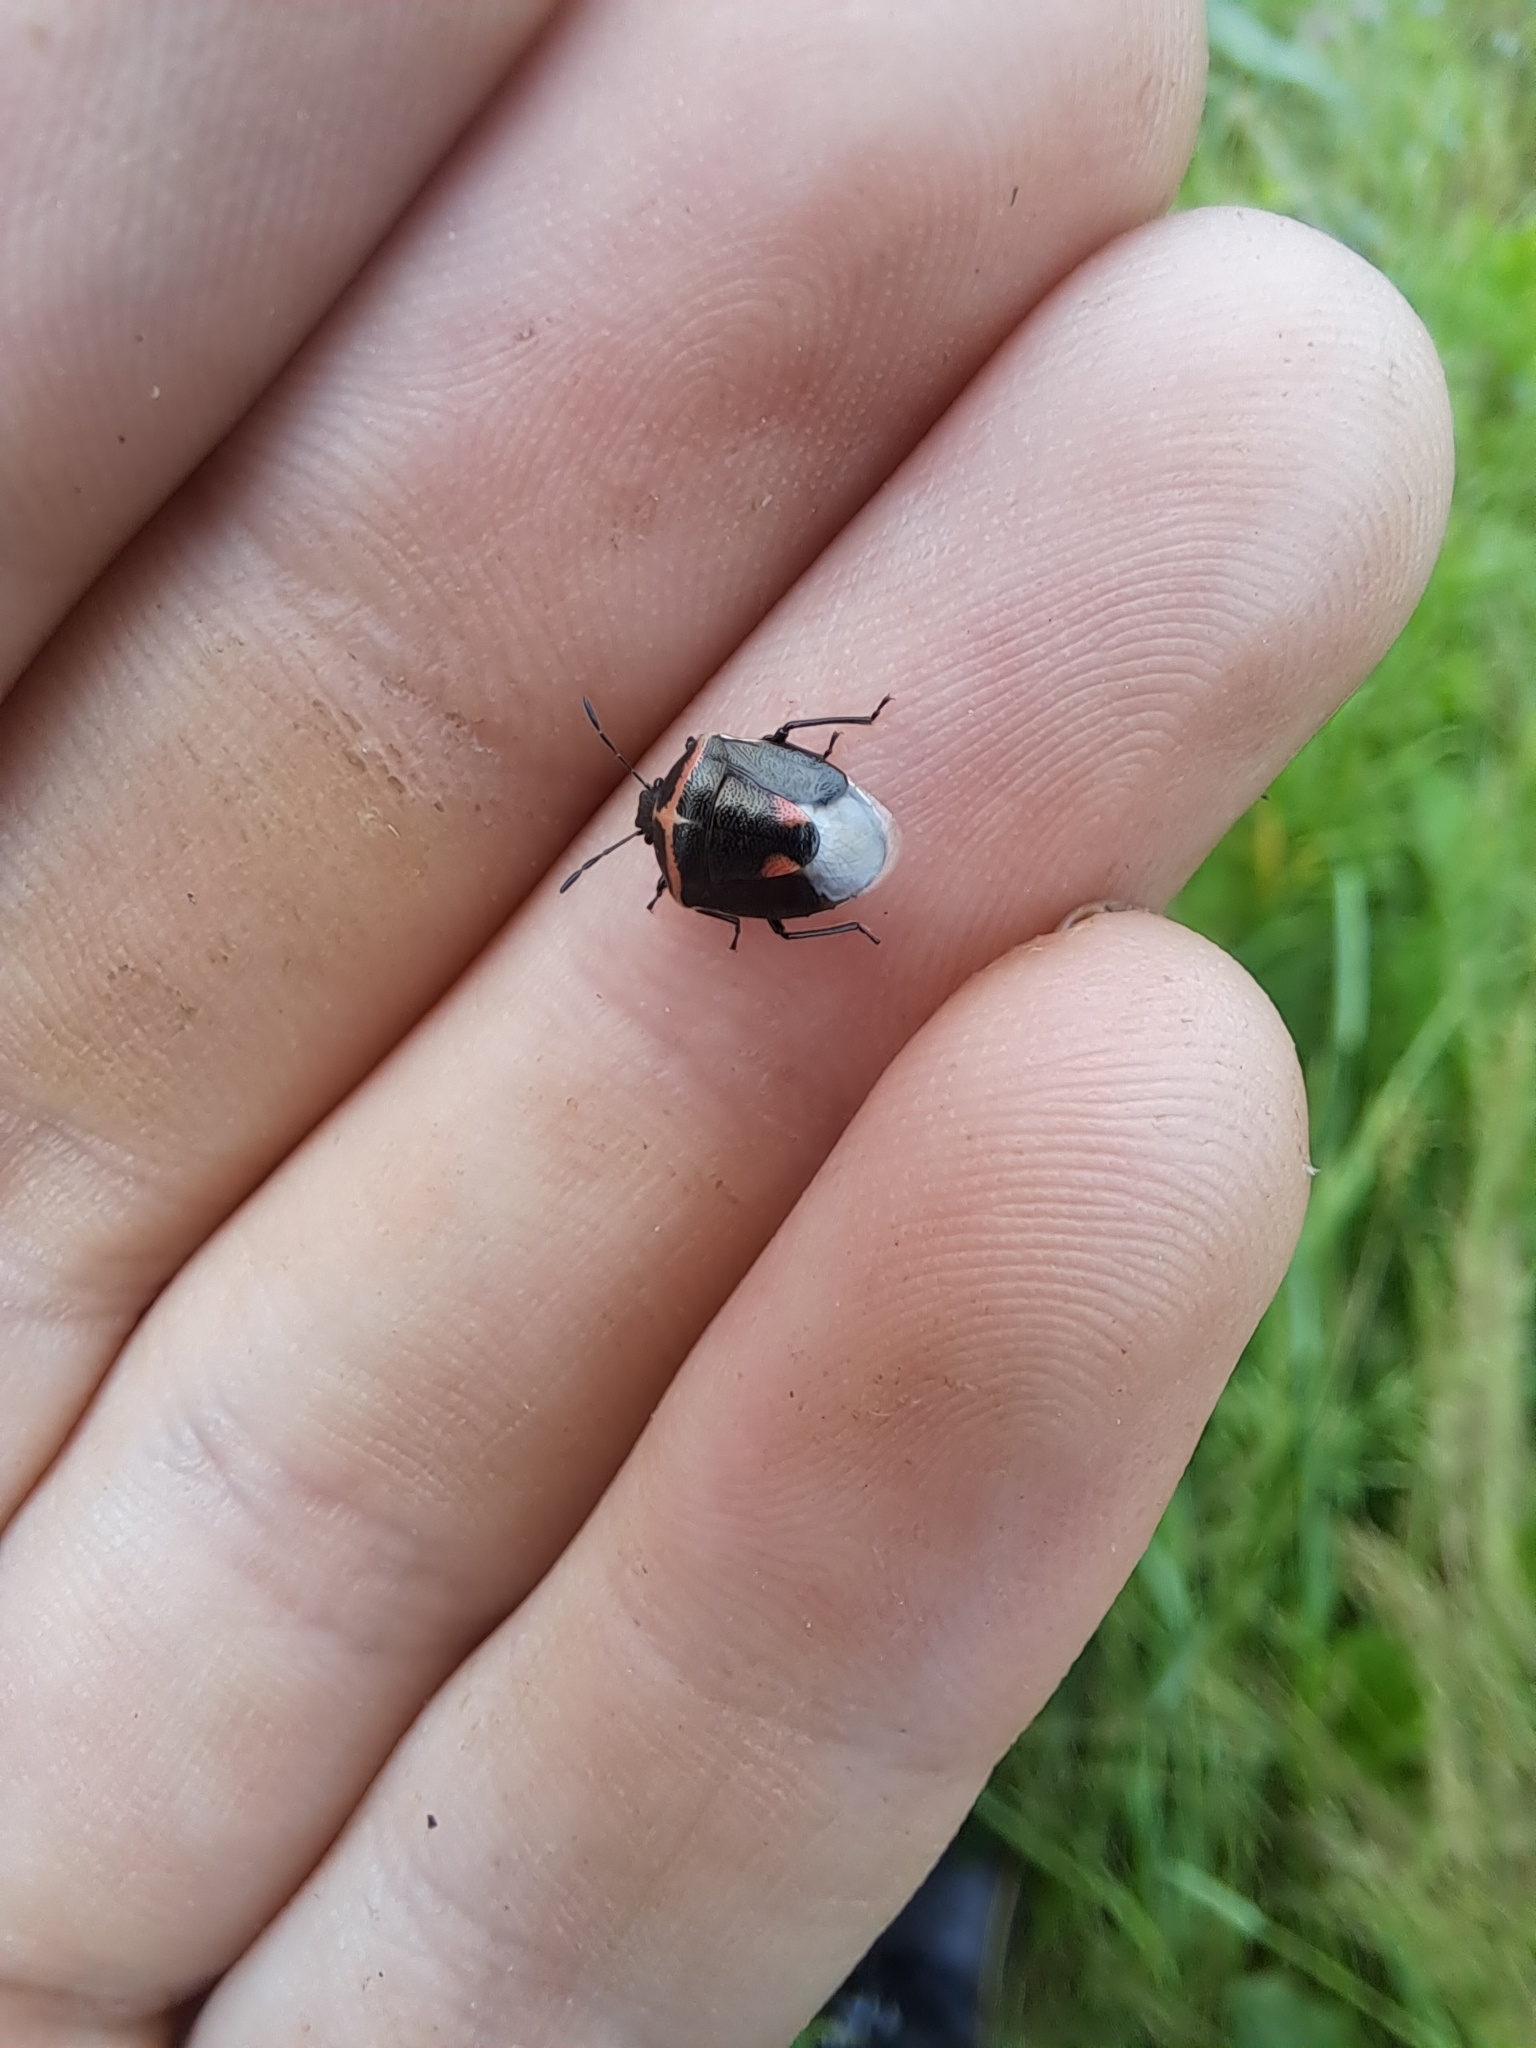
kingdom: Animalia
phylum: Arthropoda
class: Insecta
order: Hemiptera
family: Pentatomidae
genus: Cosmopepla
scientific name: Cosmopepla lintneriana
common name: Twice-stabbed stink bug
